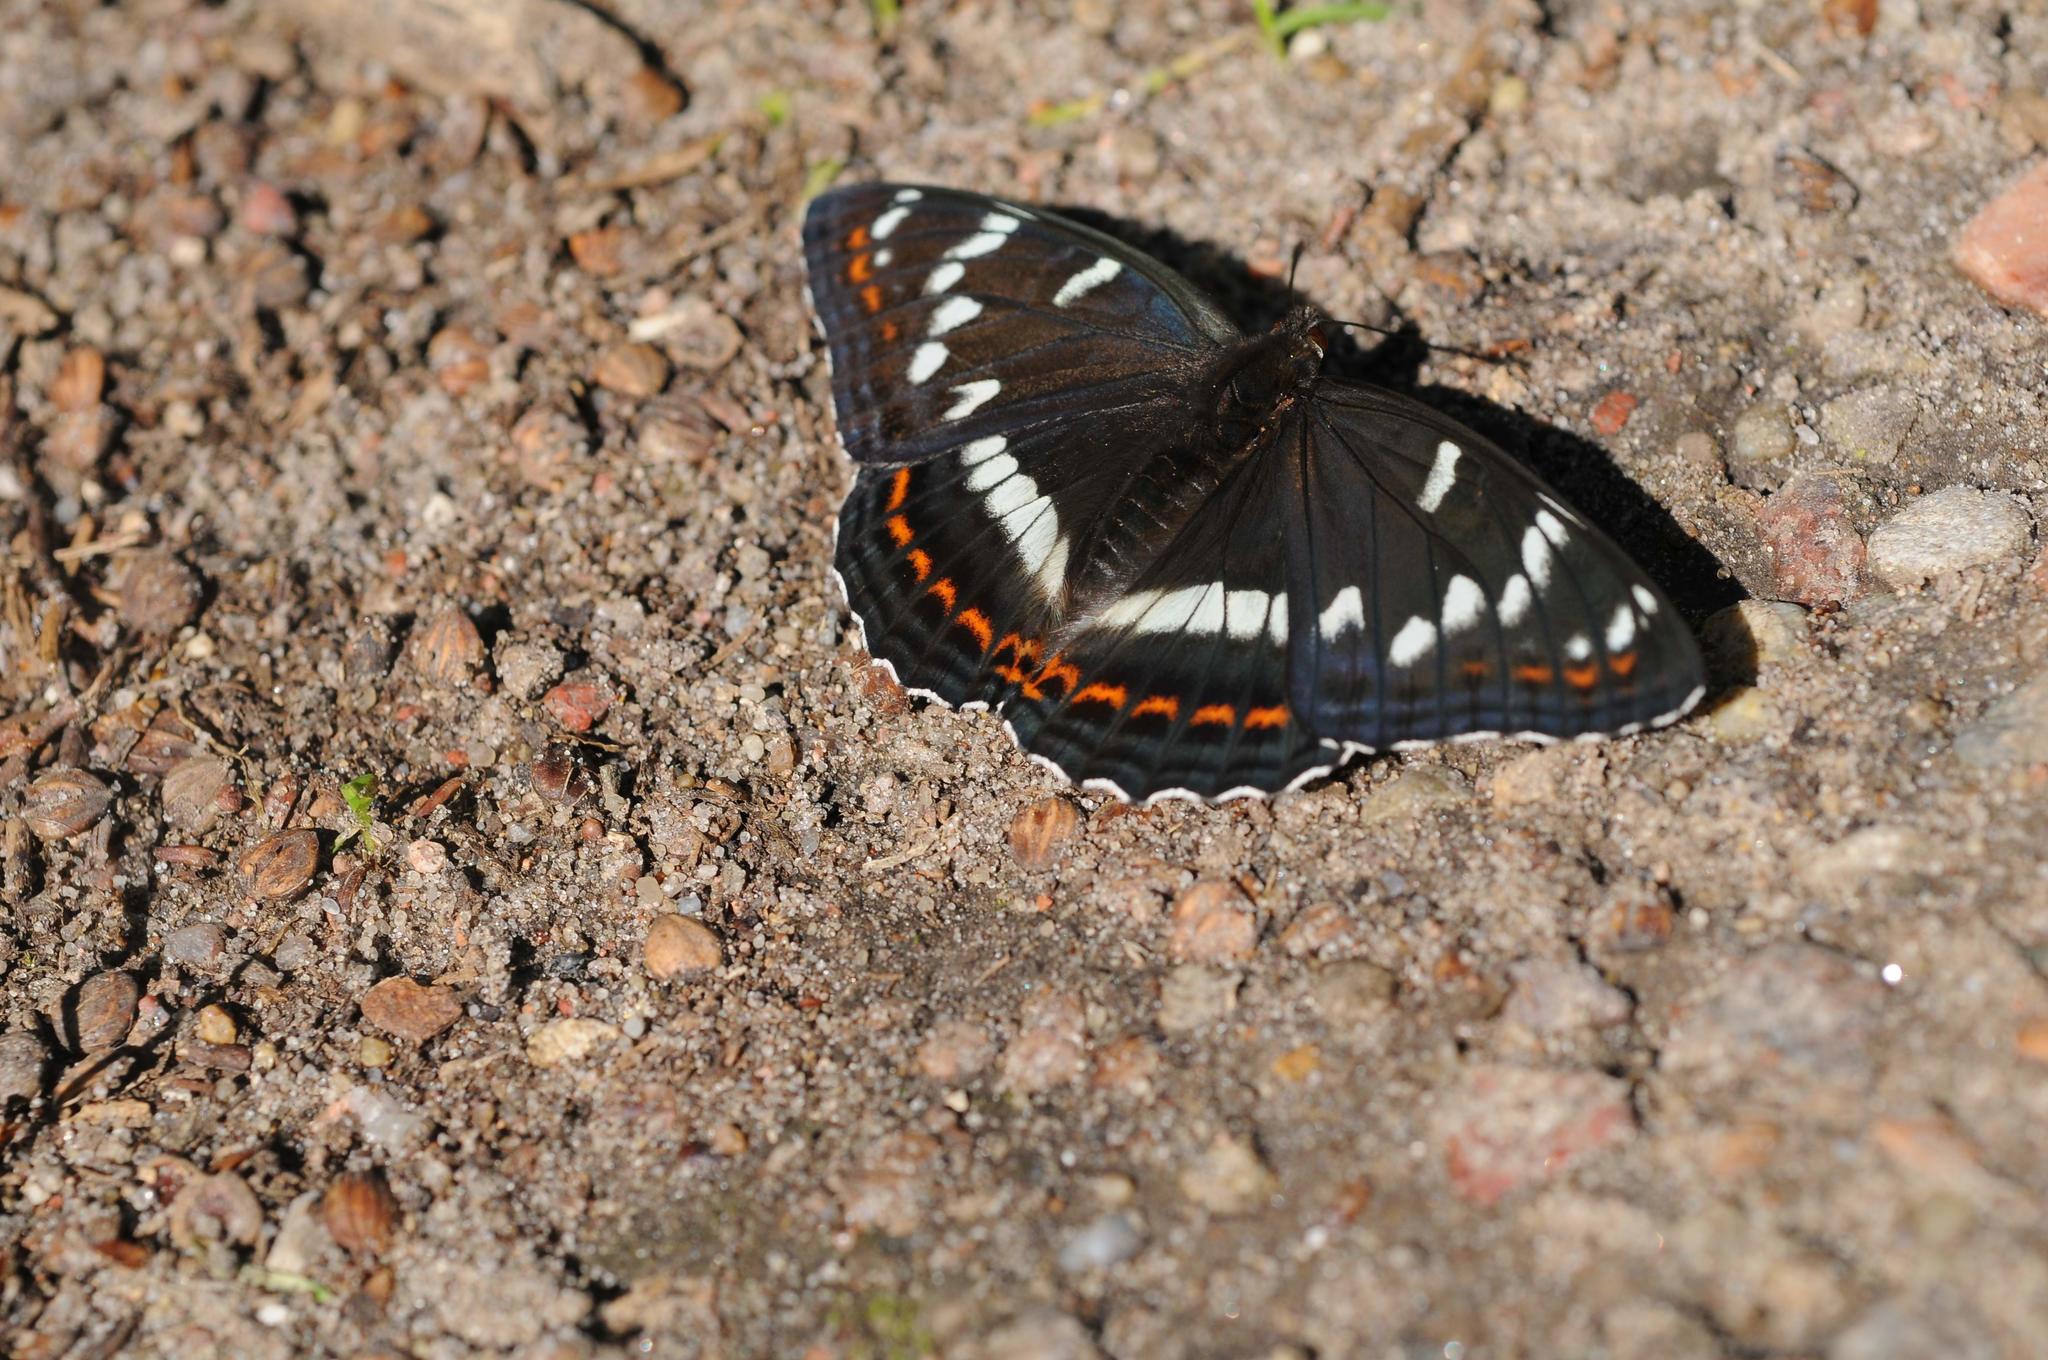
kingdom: Animalia
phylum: Arthropoda
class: Insecta
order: Lepidoptera
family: Nymphalidae
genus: Limenitis
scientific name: Limenitis populi
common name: Poplar admiral
